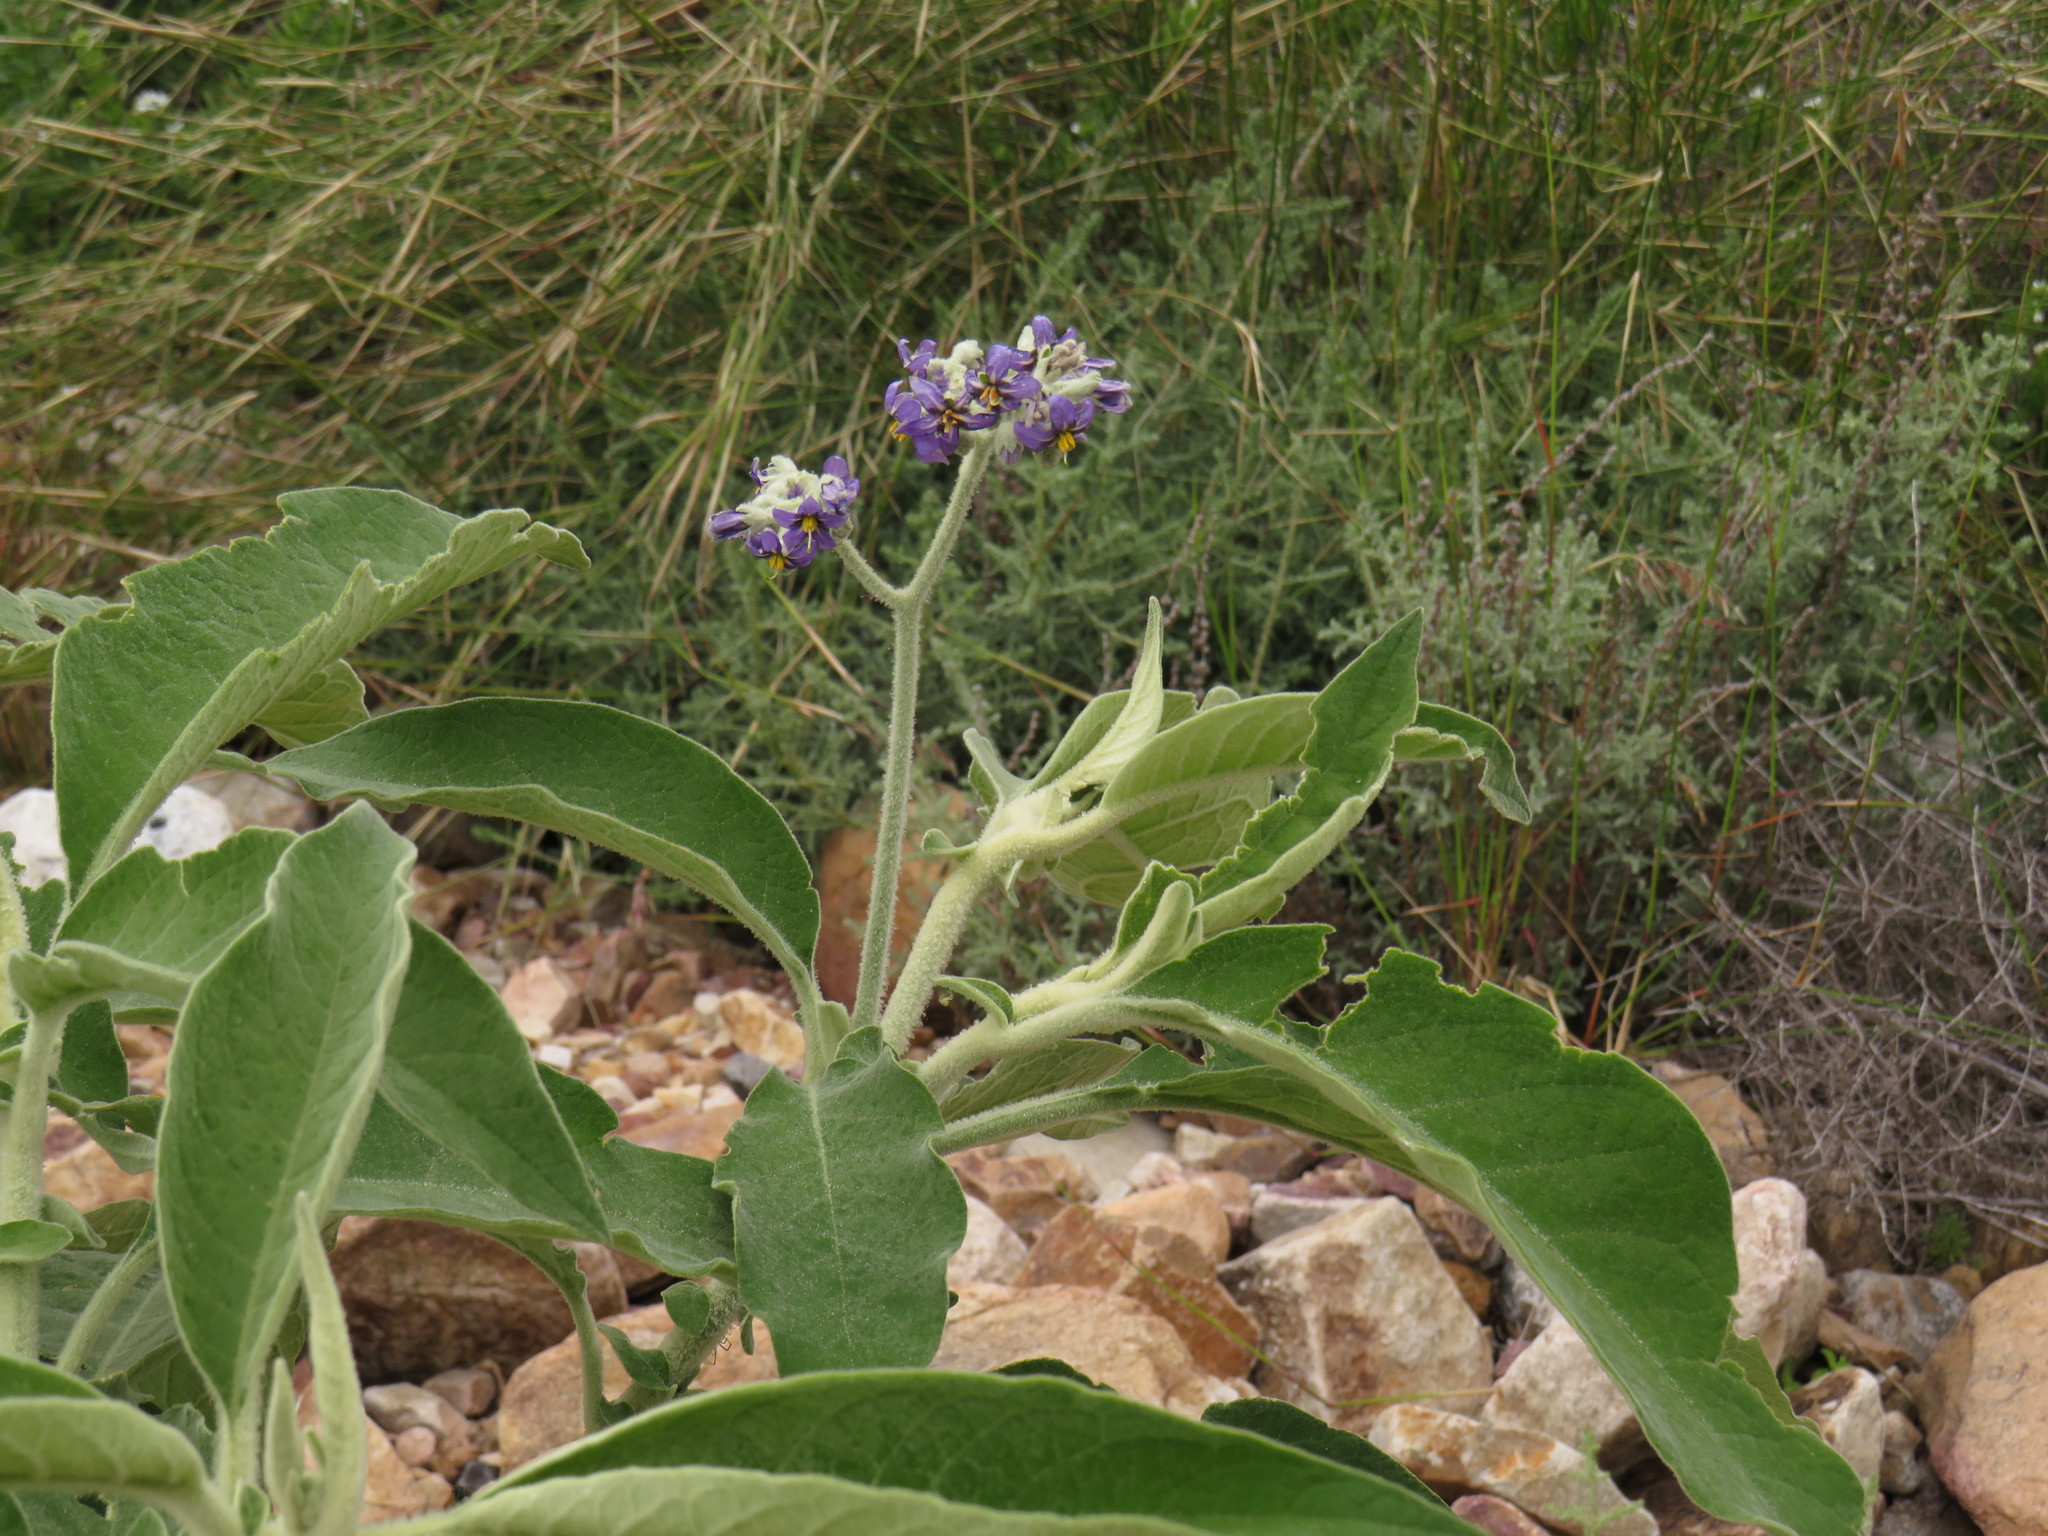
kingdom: Plantae
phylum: Tracheophyta
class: Magnoliopsida
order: Solanales
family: Solanaceae
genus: Solanum
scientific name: Solanum mauritianum
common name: Earleaf nightshade
